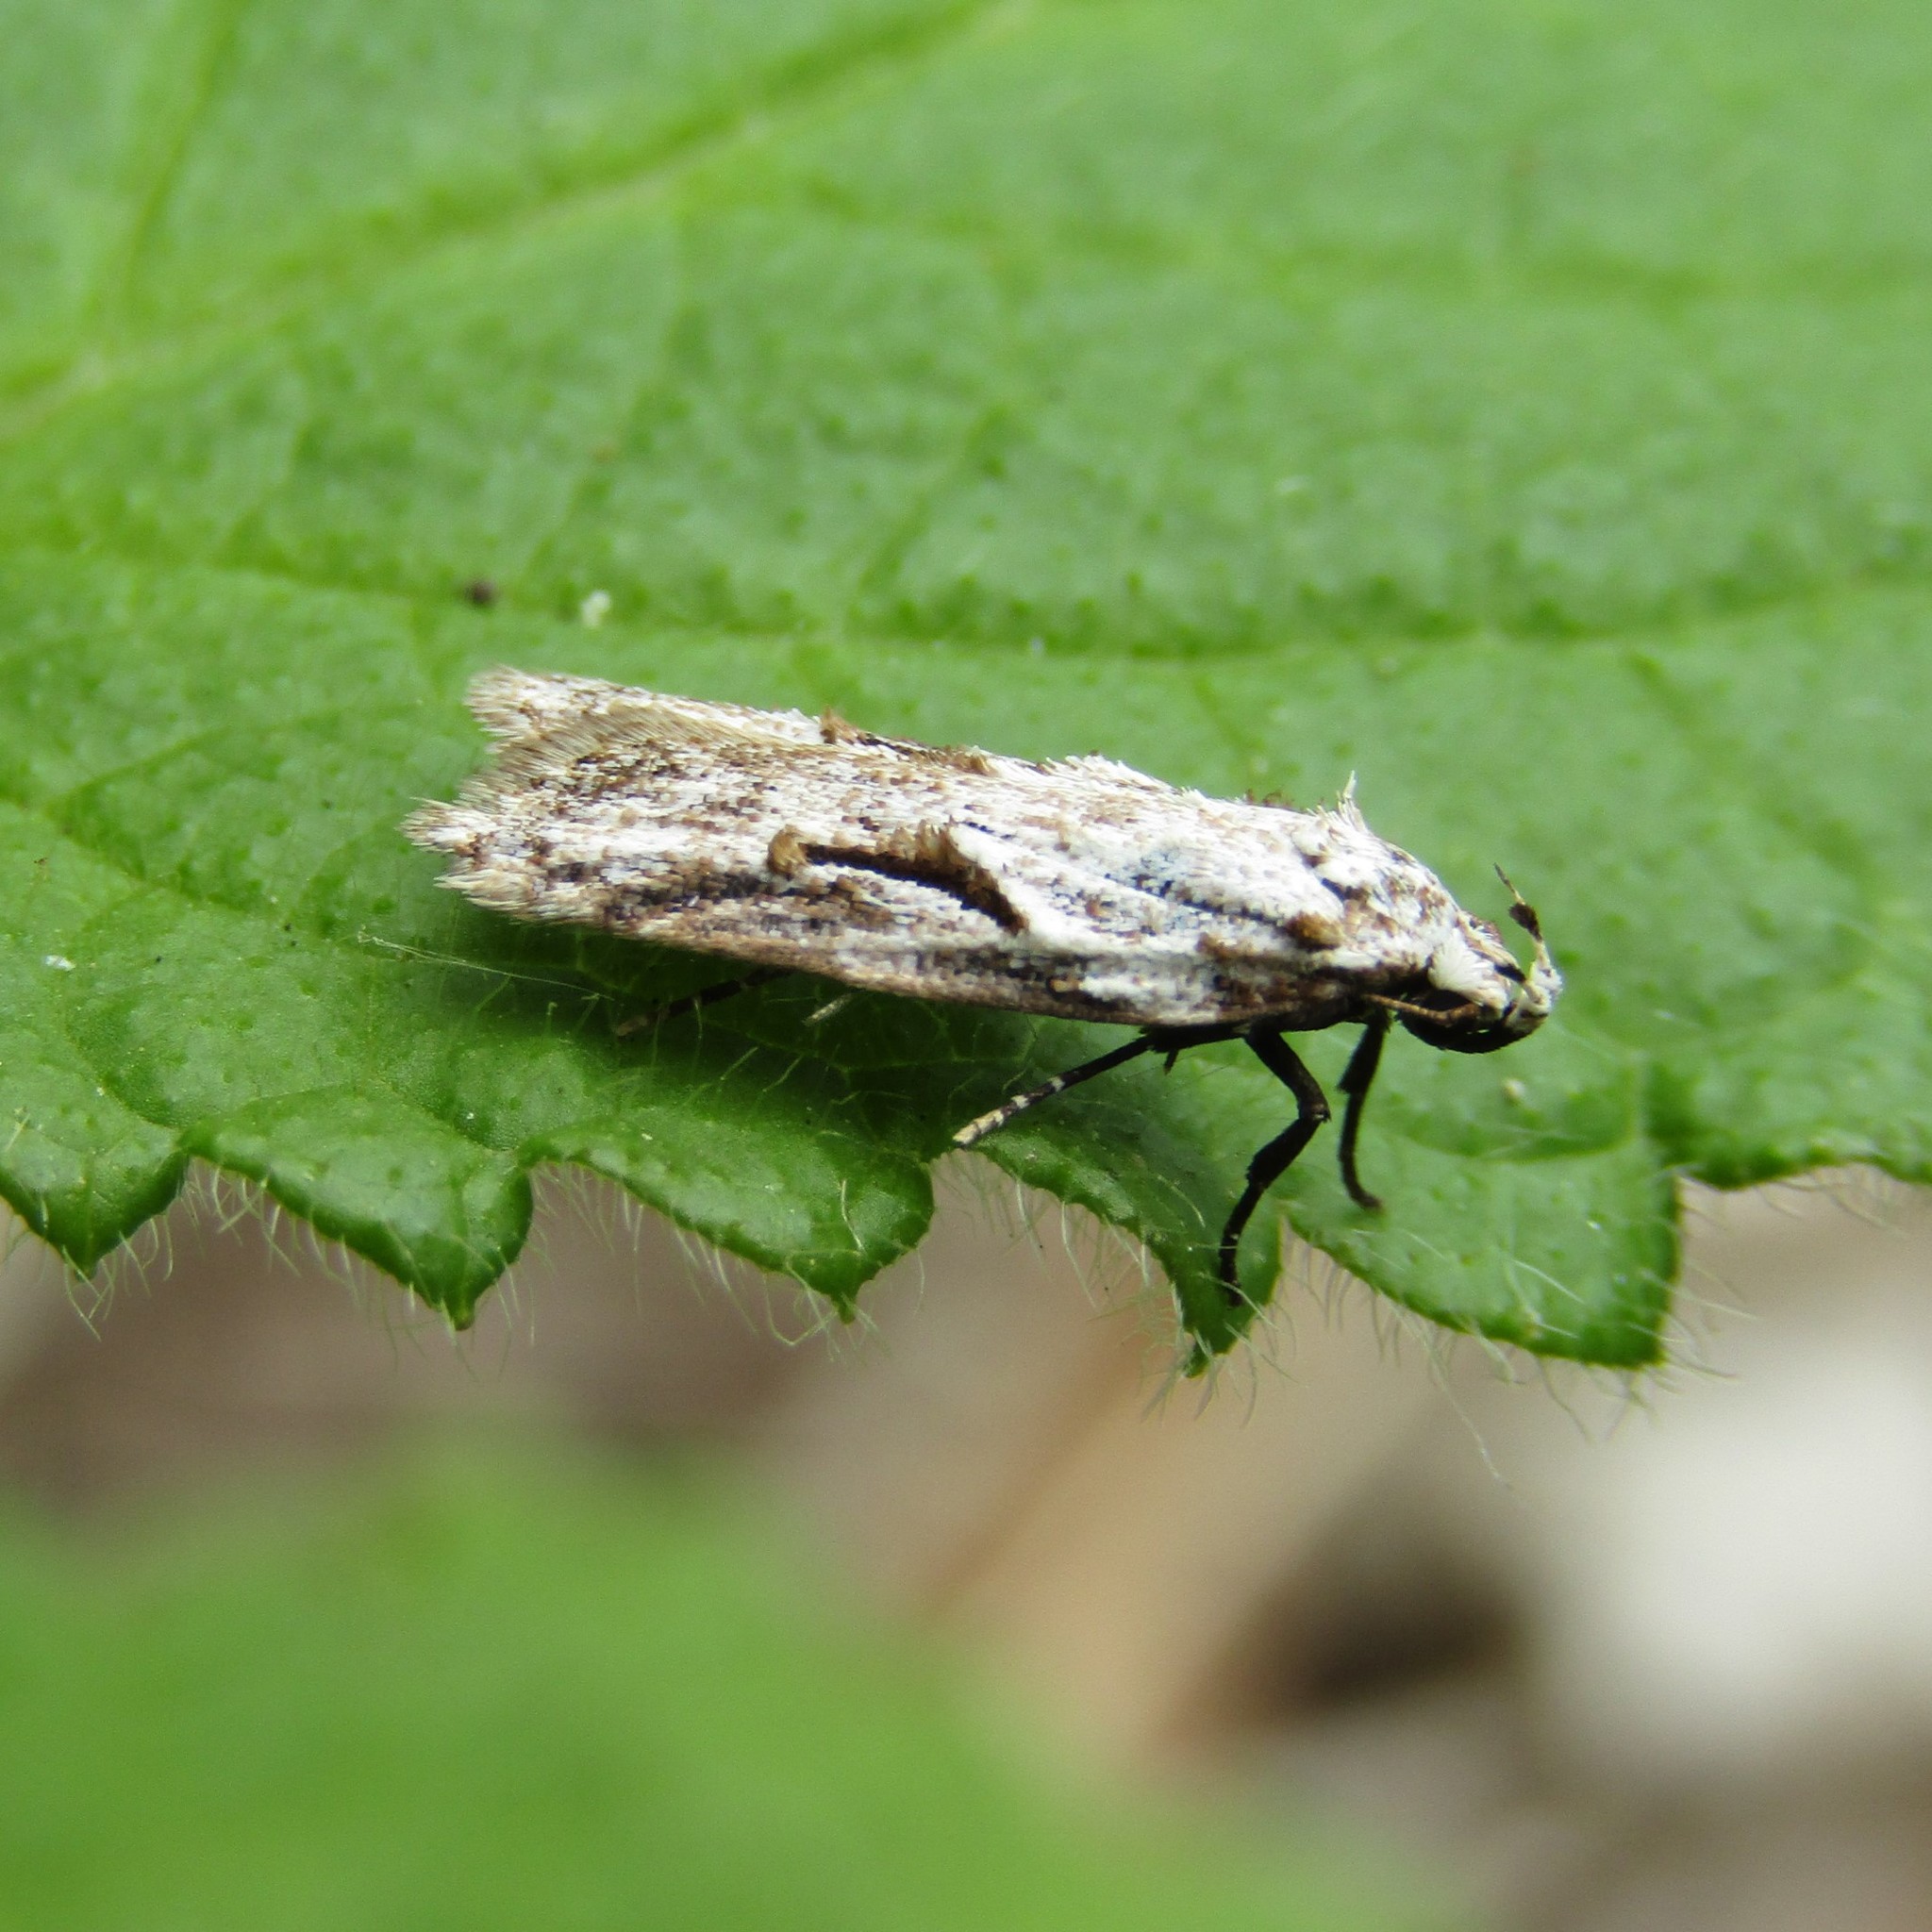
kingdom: Animalia
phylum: Arthropoda
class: Insecta
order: Lepidoptera
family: Oecophoridae
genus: Izatha
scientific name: Izatha mesoschista
